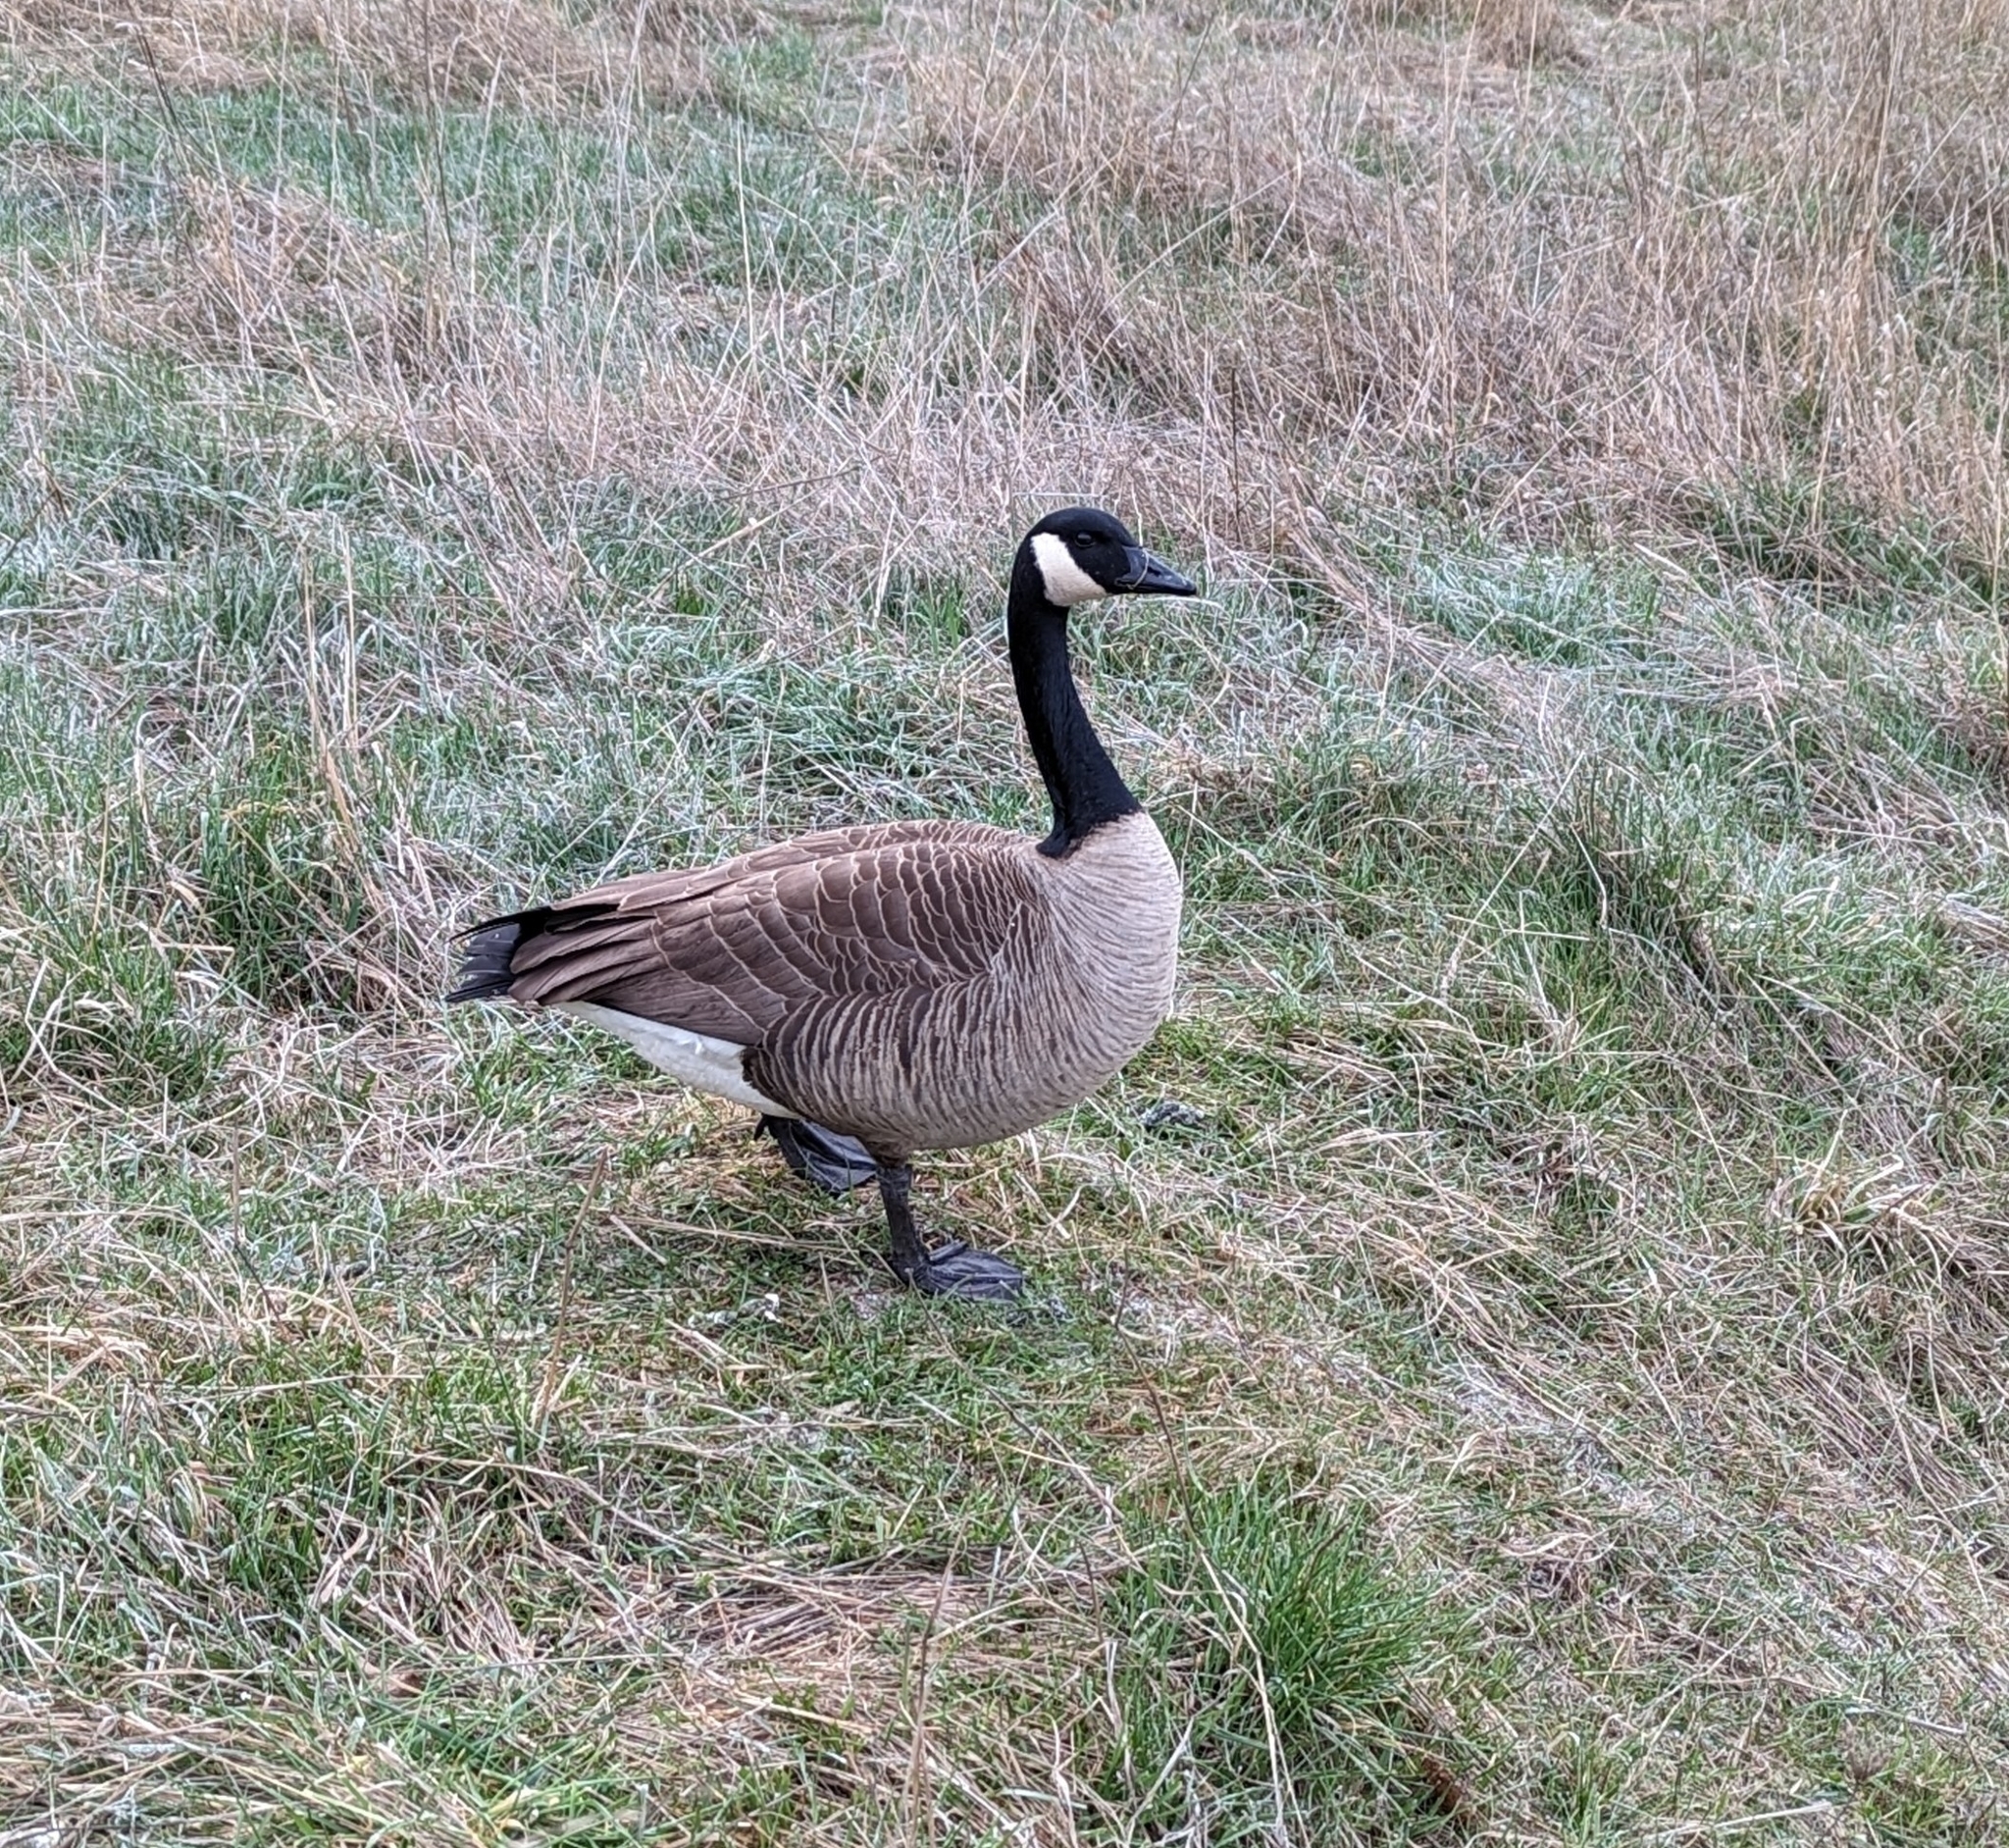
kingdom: Animalia
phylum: Chordata
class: Aves
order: Anseriformes
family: Anatidae
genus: Branta
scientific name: Branta canadensis
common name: Canada goose
